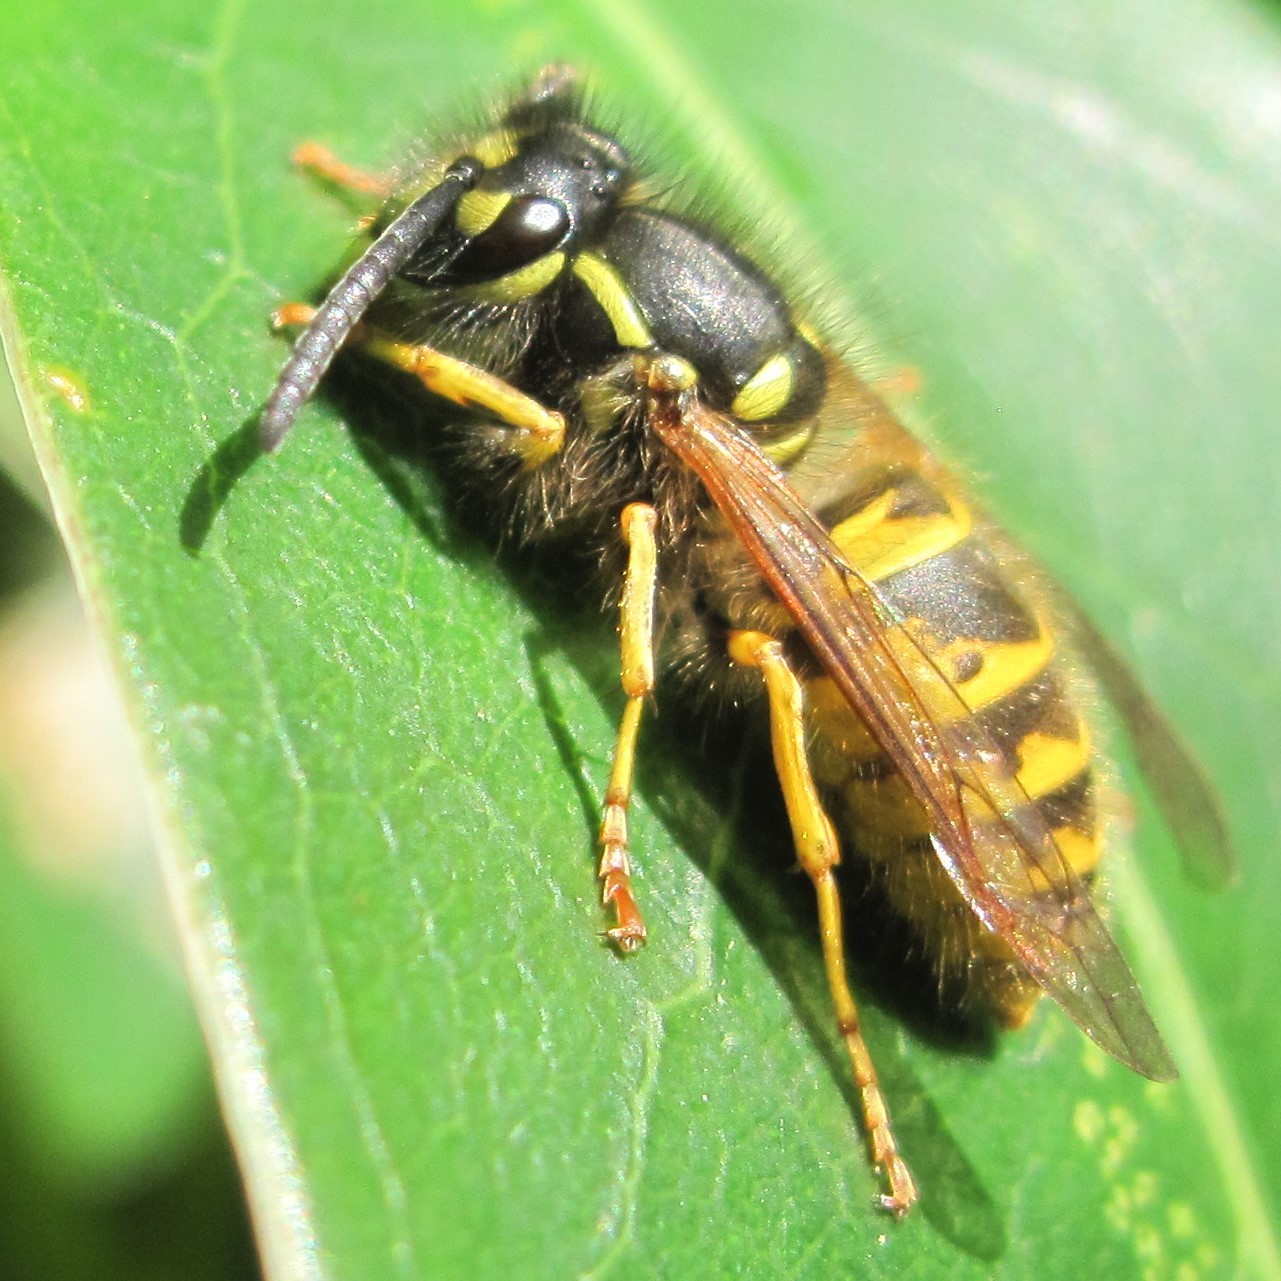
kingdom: Animalia
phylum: Arthropoda
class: Insecta
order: Hymenoptera
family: Vespidae
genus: Vespula
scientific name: Vespula vulgaris
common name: Common wasp
